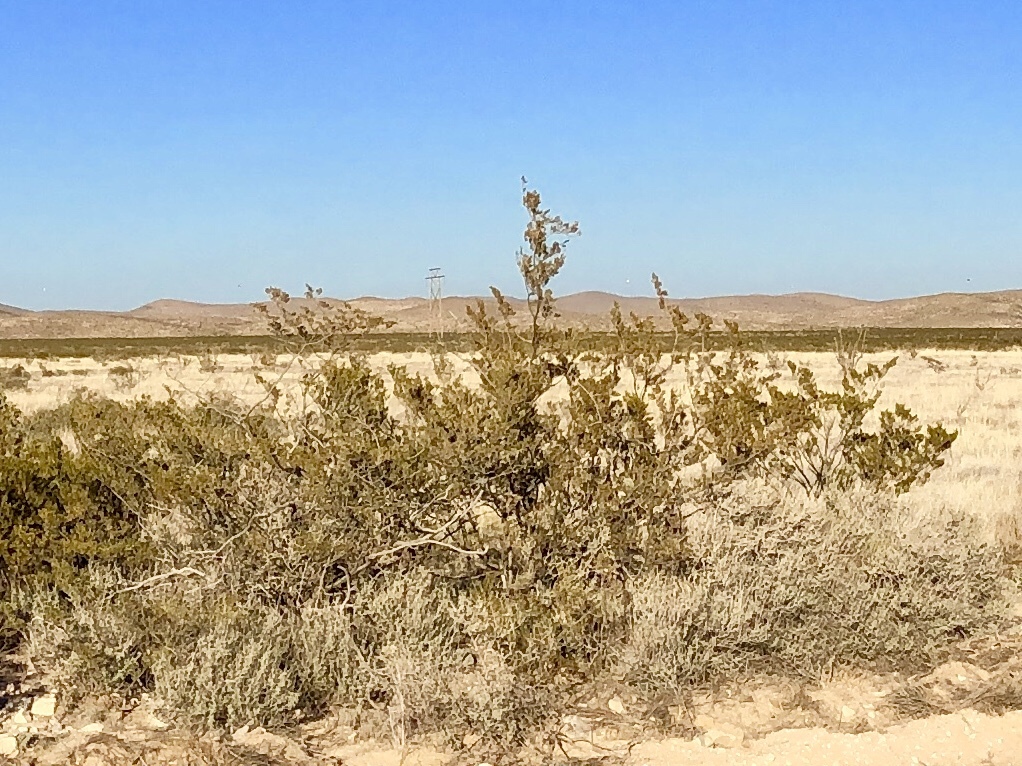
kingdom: Plantae
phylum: Tracheophyta
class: Magnoliopsida
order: Zygophyllales
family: Zygophyllaceae
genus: Larrea
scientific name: Larrea tridentata
